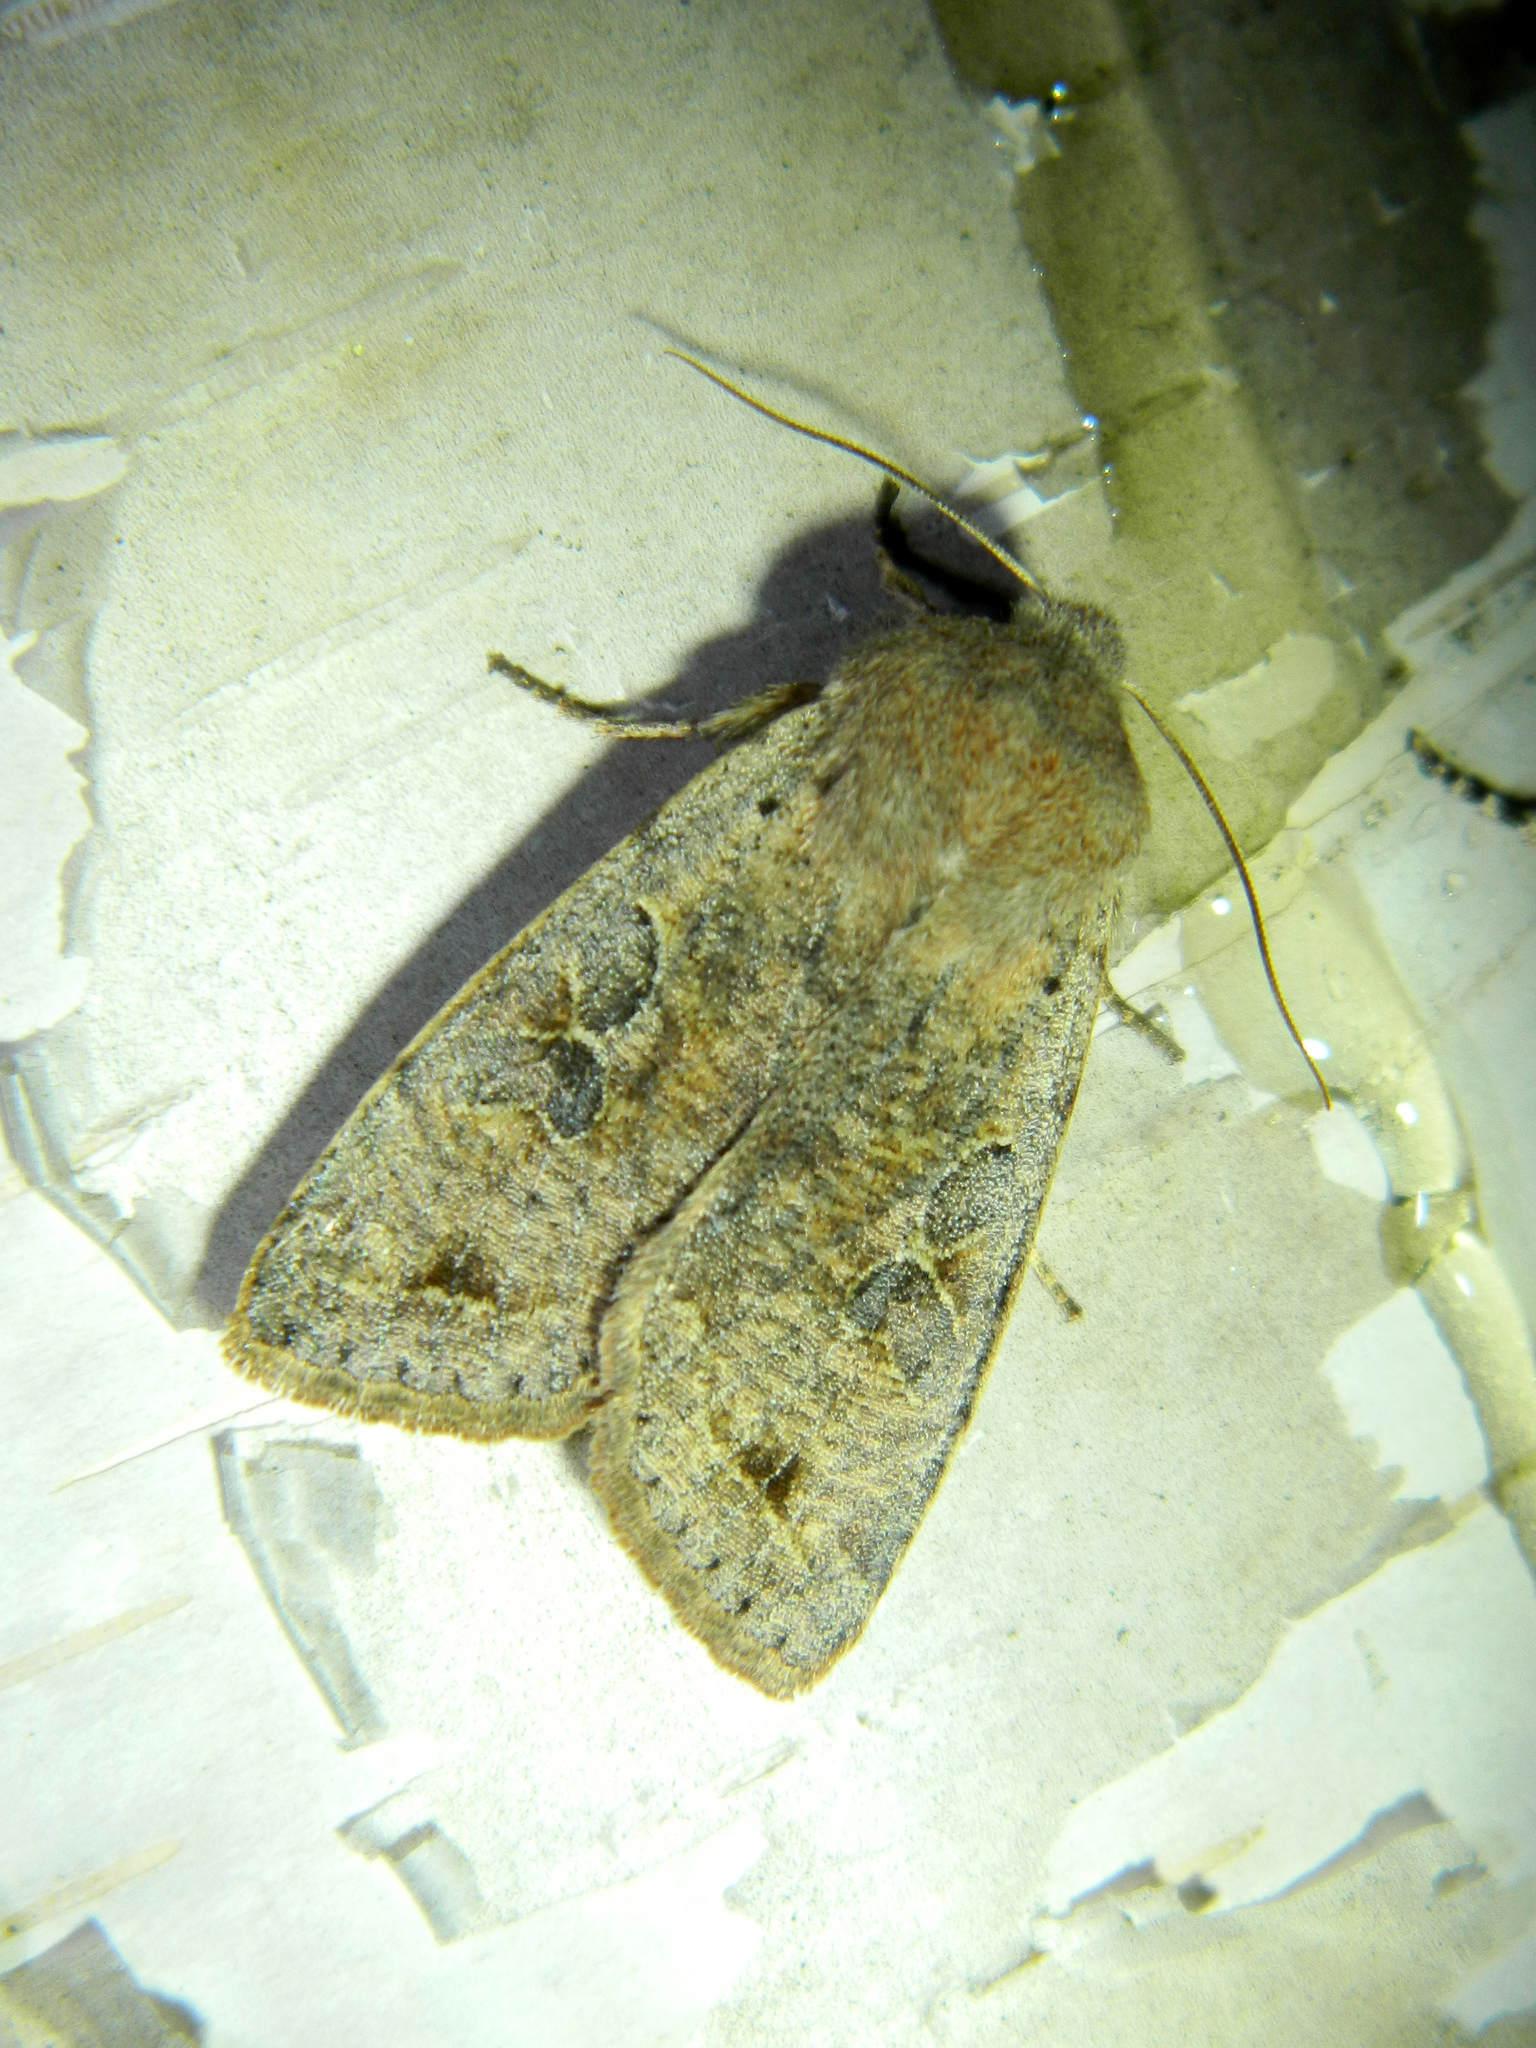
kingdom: Animalia
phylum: Arthropoda
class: Insecta
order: Lepidoptera
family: Noctuidae
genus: Orthosia
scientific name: Orthosia hibisci
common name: Green fruitworm
